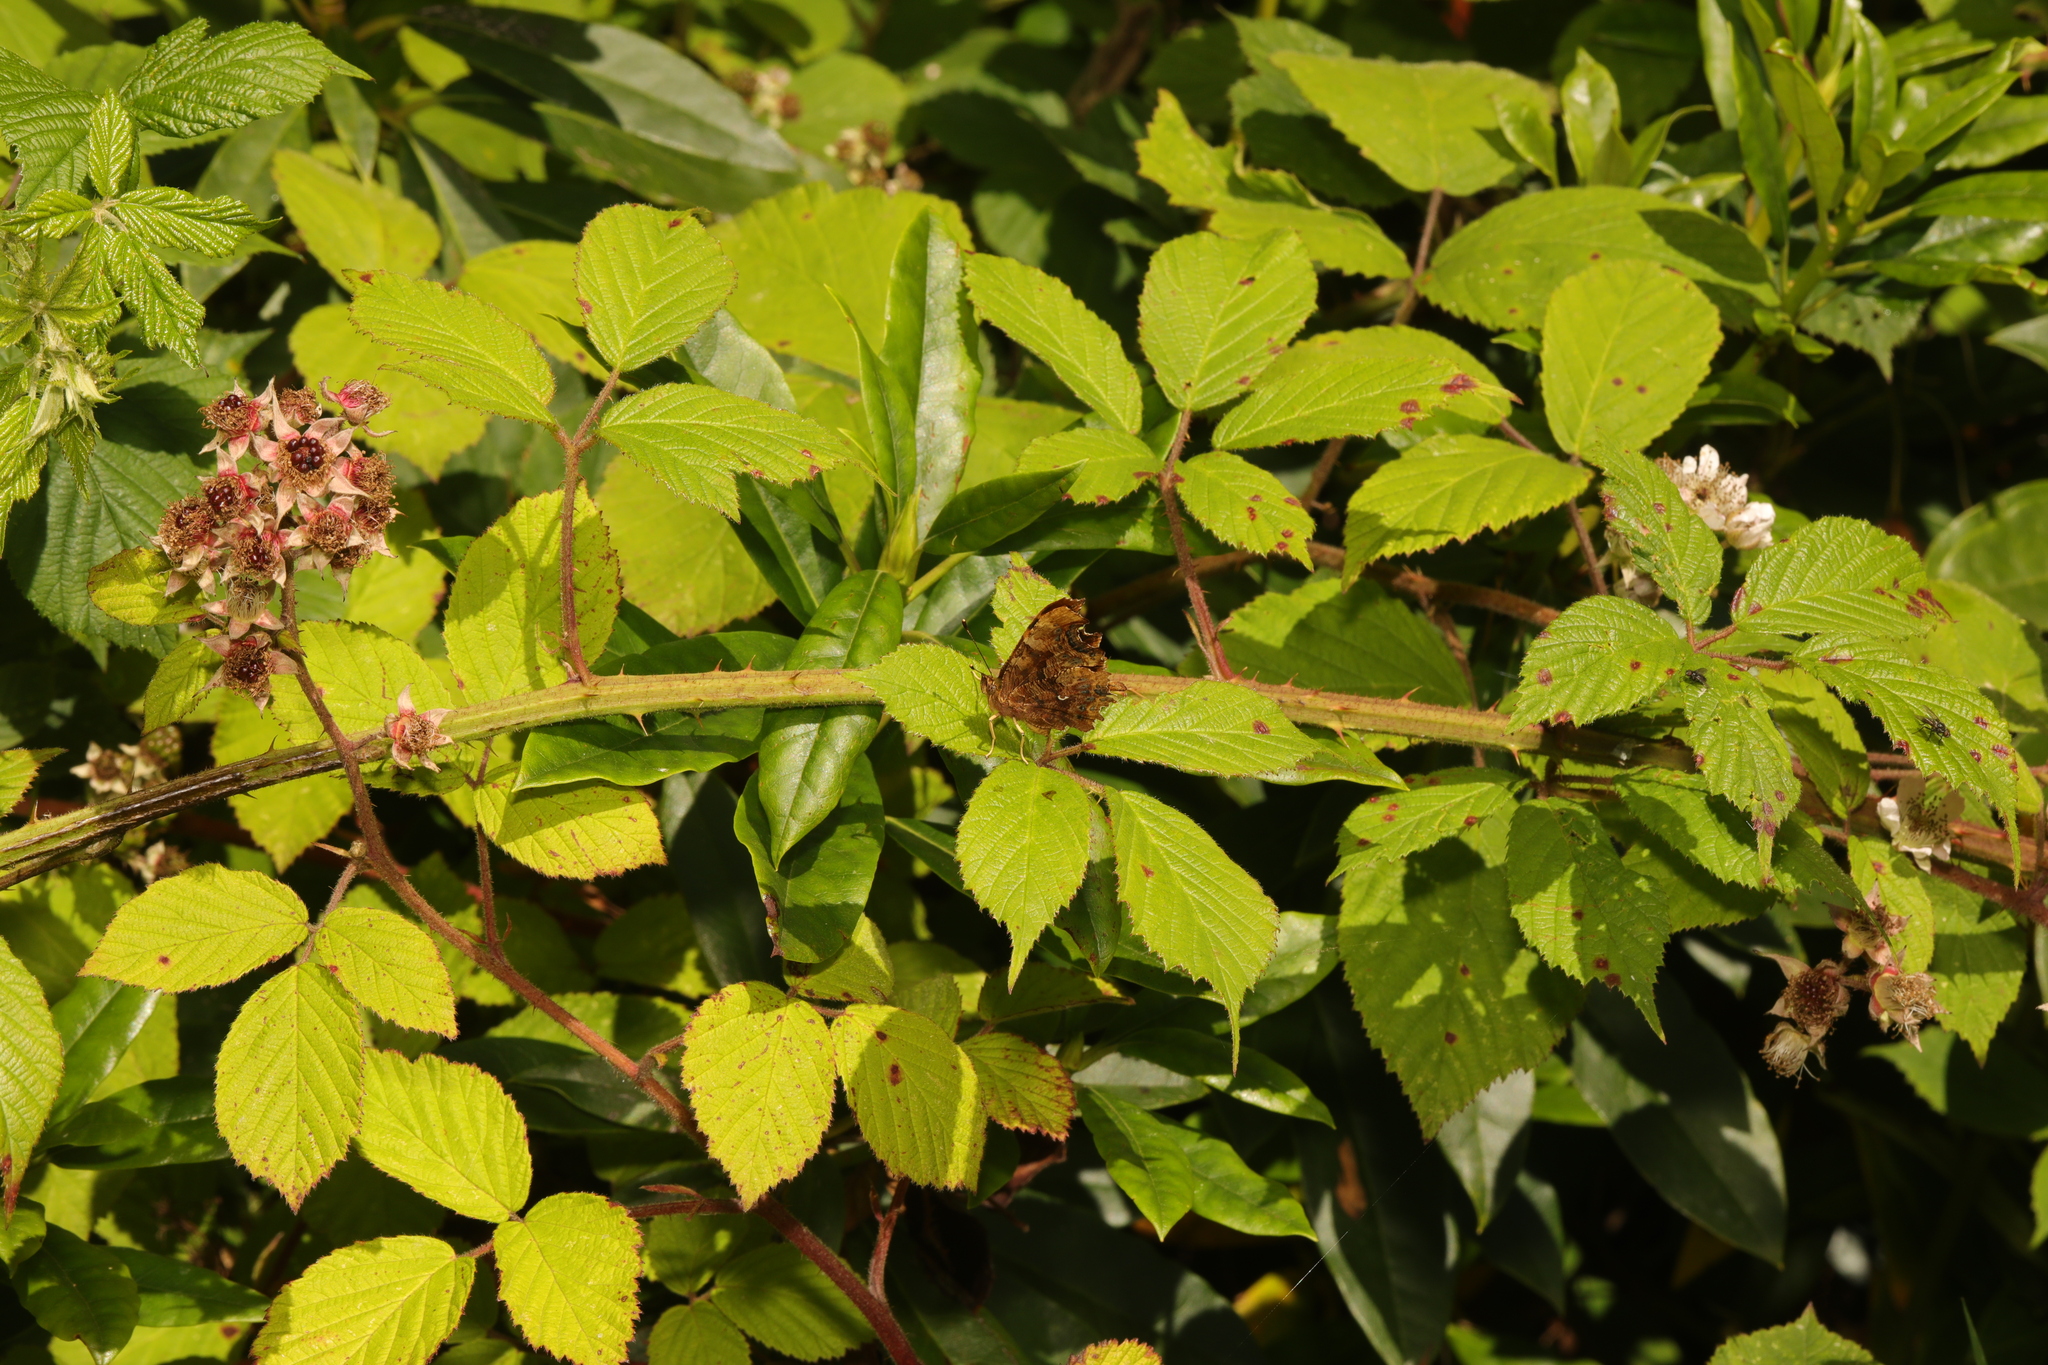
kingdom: Animalia
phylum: Arthropoda
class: Insecta
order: Lepidoptera
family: Nymphalidae
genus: Polygonia
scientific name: Polygonia c-album
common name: Comma
